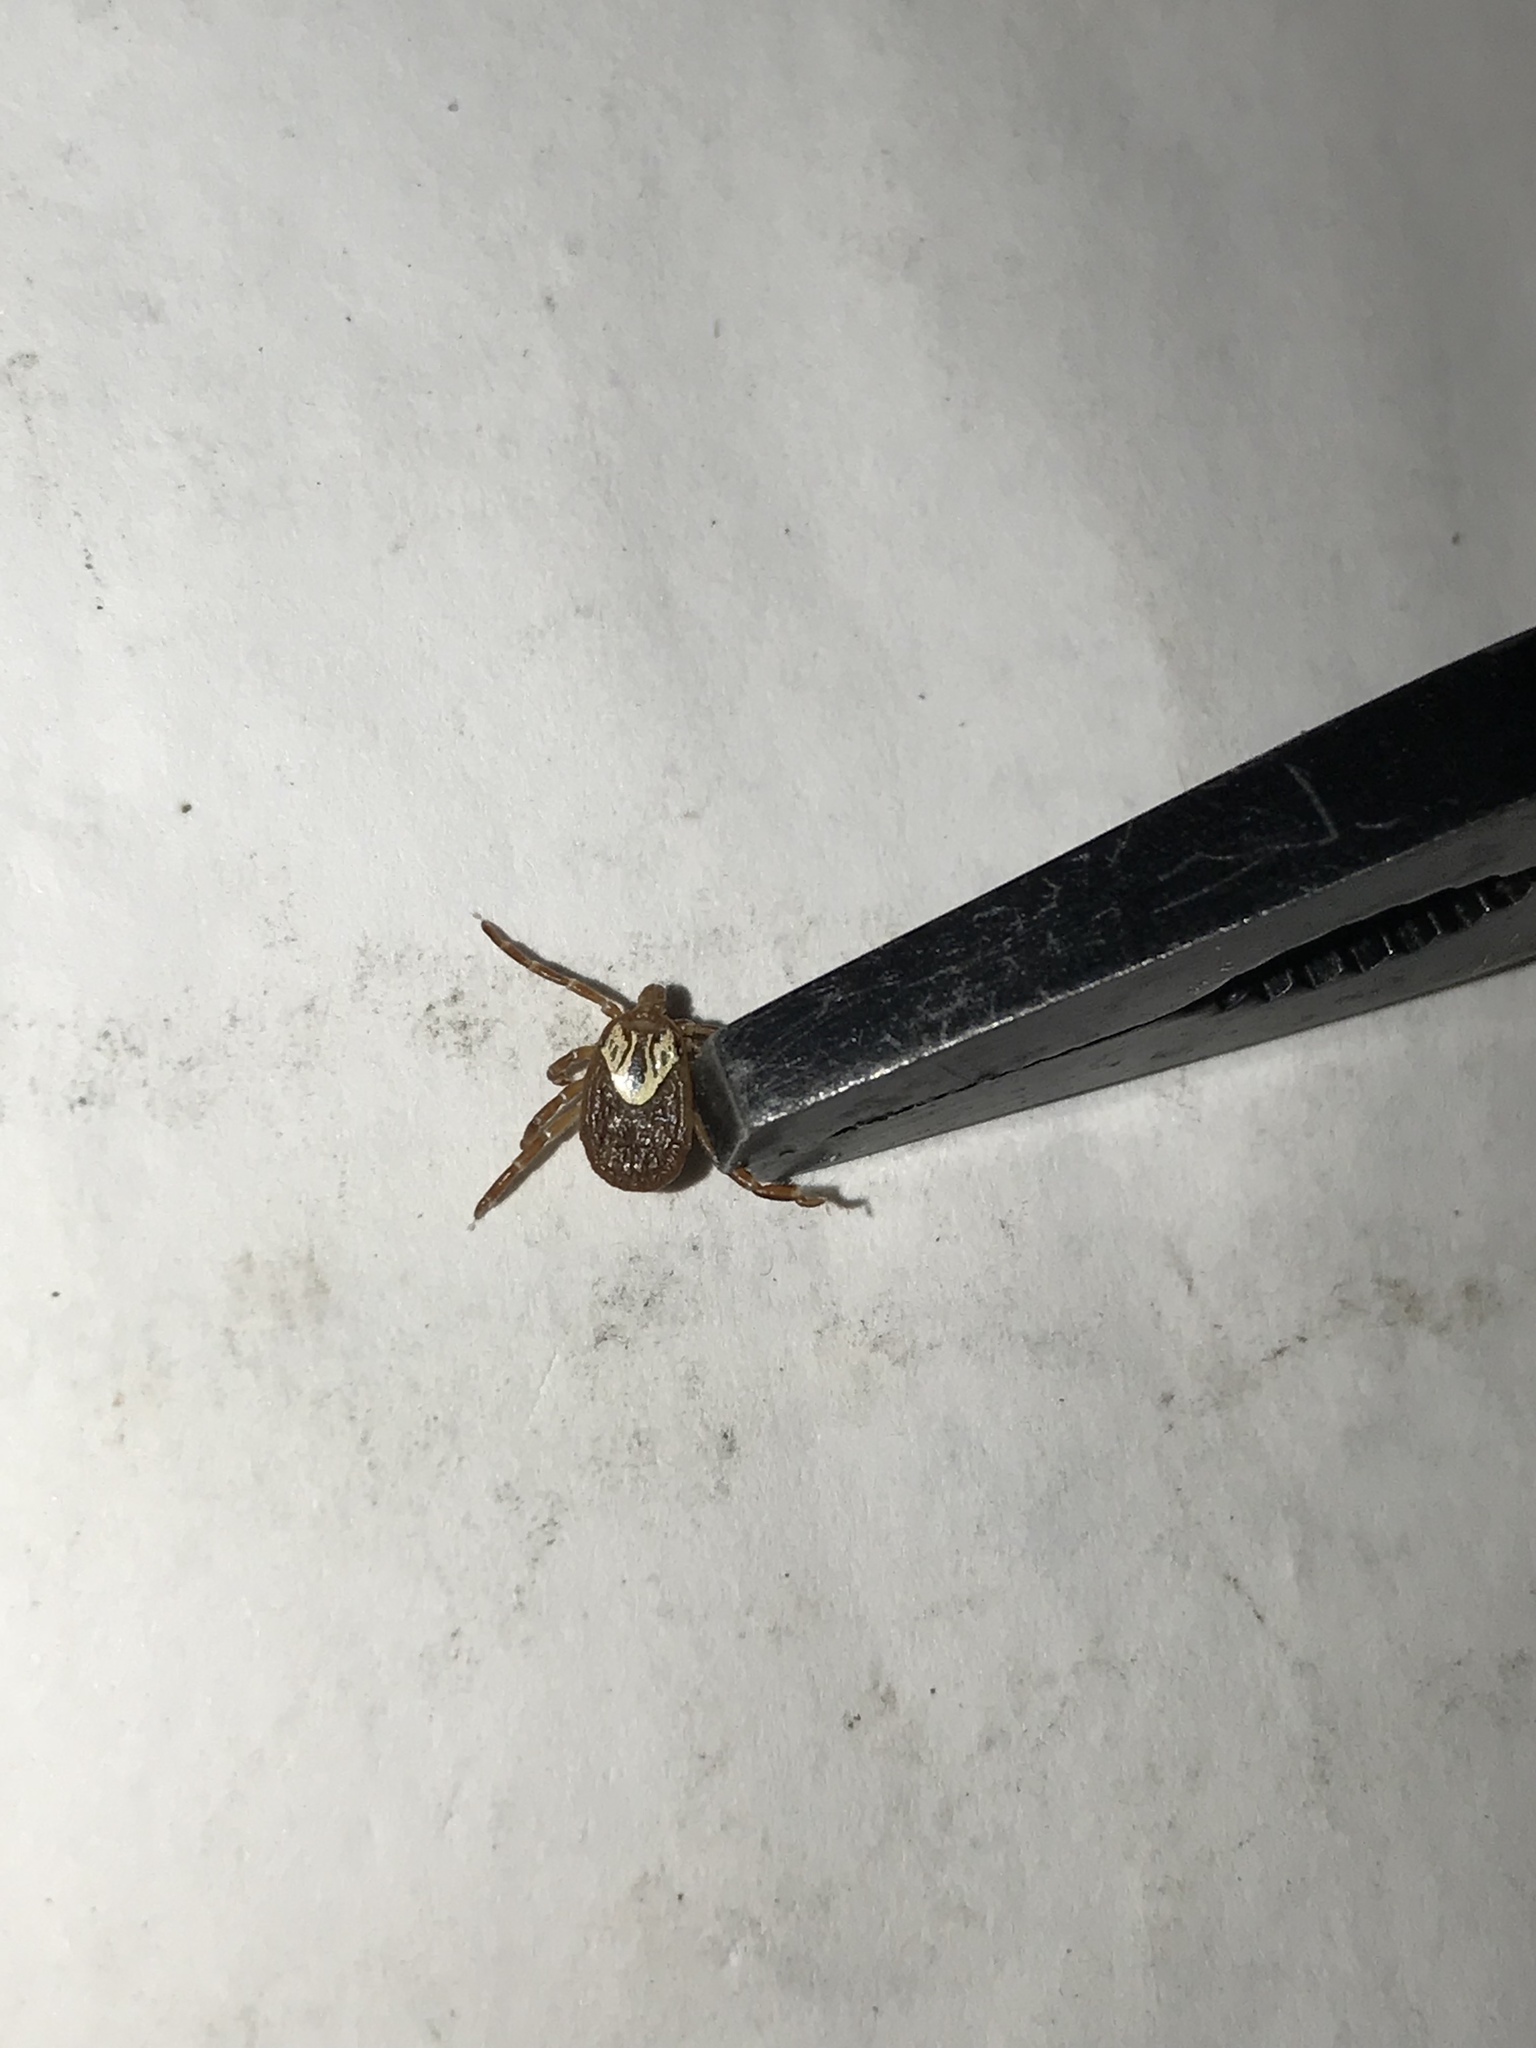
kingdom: Animalia
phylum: Arthropoda
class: Arachnida
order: Ixodida
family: Ixodidae
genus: Amblyomma
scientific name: Amblyomma maculatum
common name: Gulf coast tick
